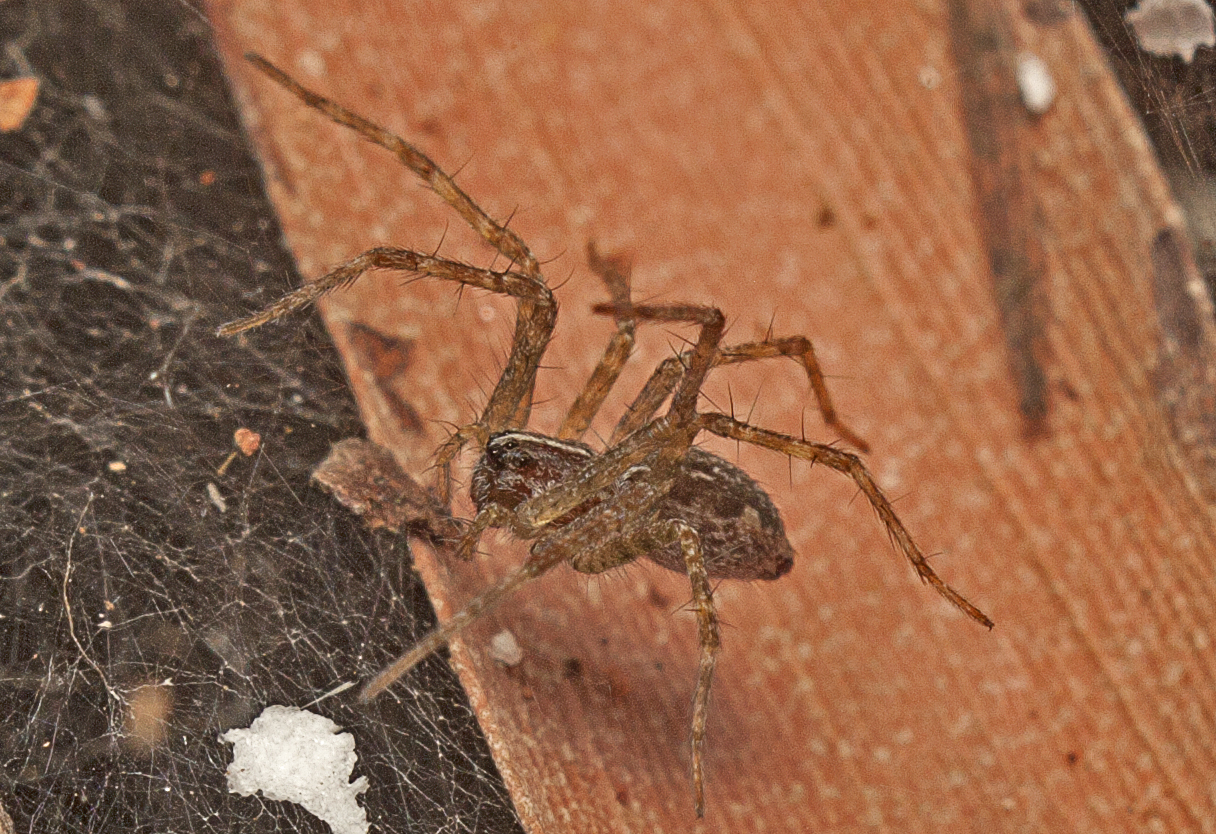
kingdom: Animalia
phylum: Arthropoda
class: Arachnida
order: Araneae
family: Pisauridae
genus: Dendrolycosa
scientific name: Dendrolycosa icadia
